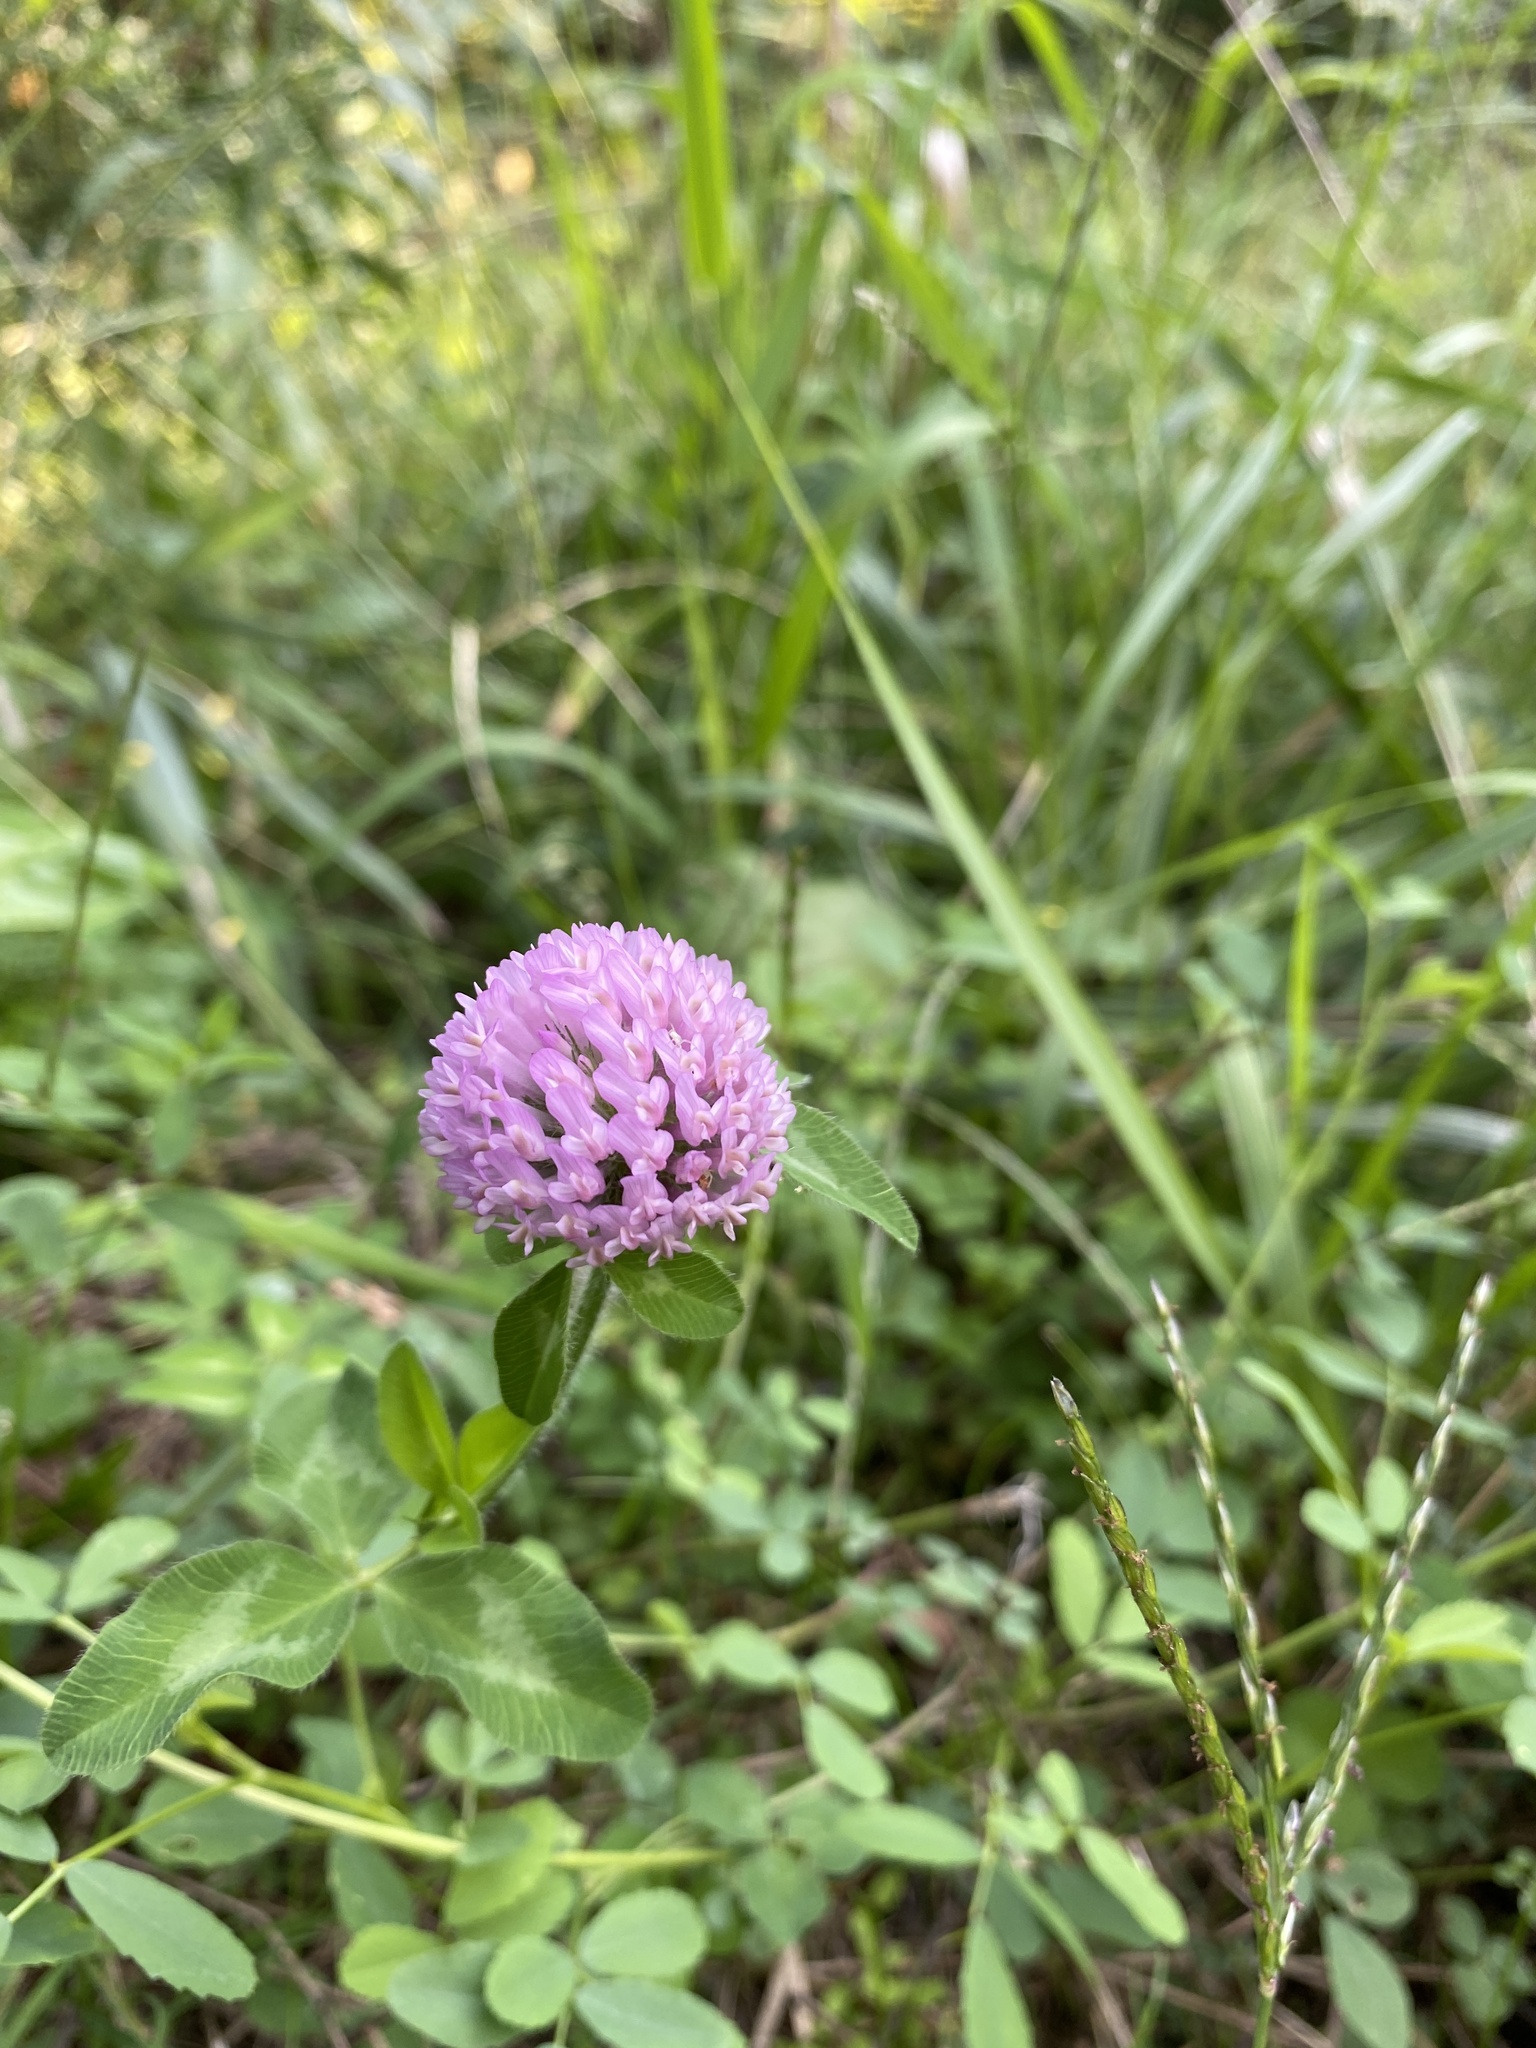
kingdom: Plantae
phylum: Tracheophyta
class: Magnoliopsida
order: Fabales
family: Fabaceae
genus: Trifolium
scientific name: Trifolium pratense
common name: Red clover
